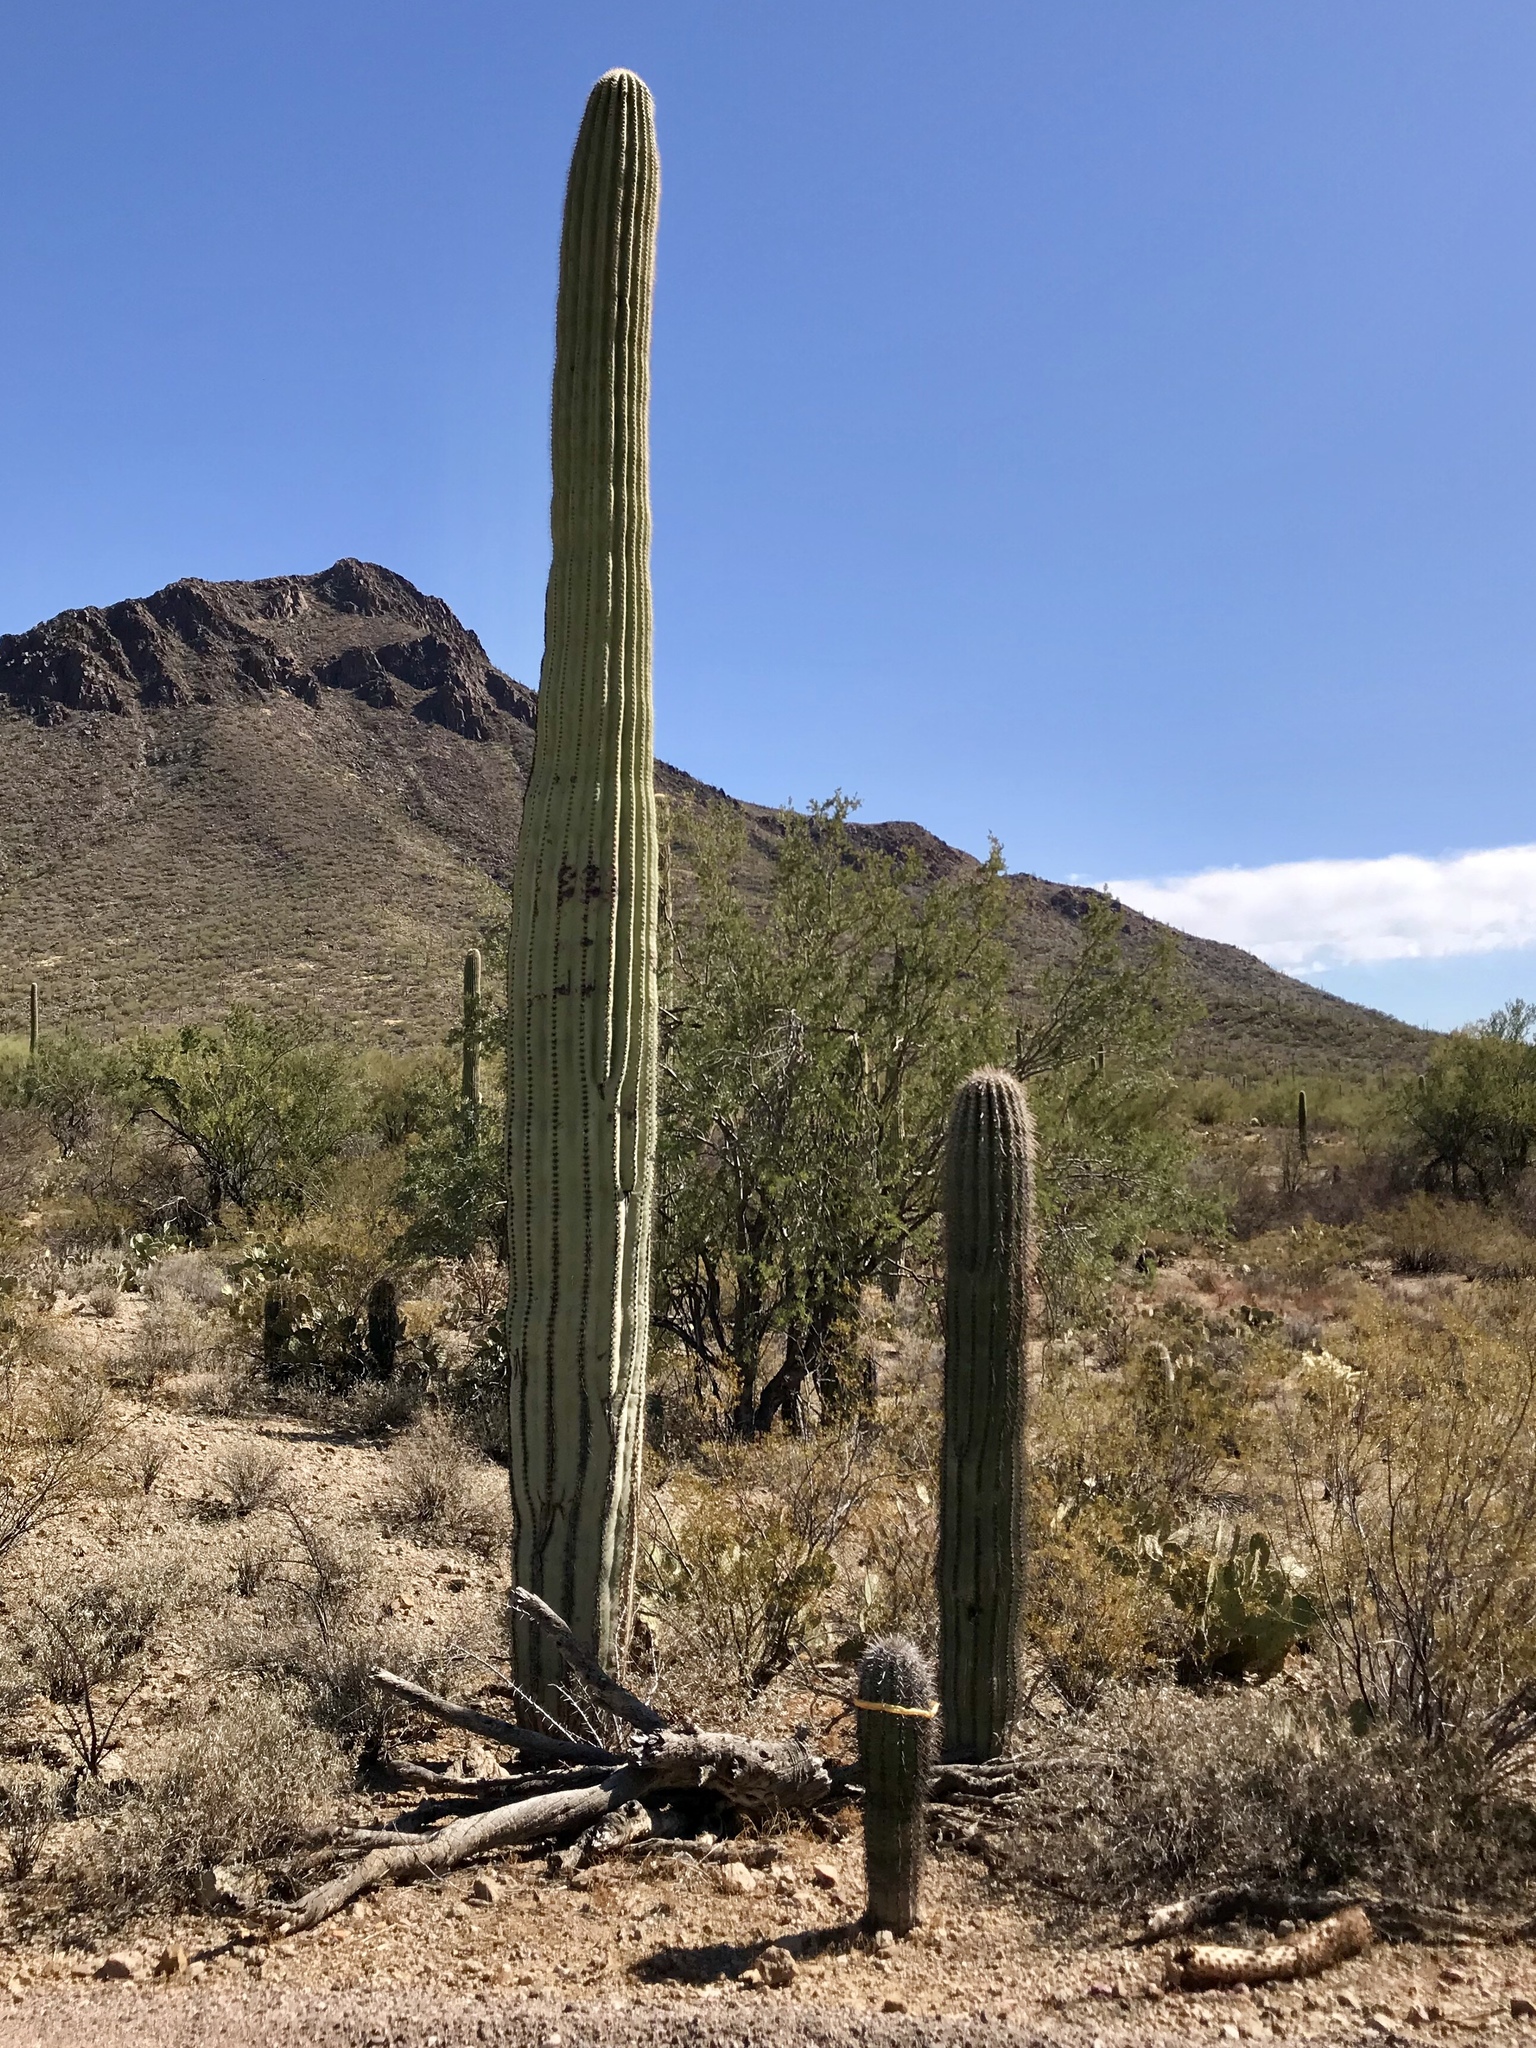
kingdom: Plantae
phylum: Tracheophyta
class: Magnoliopsida
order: Caryophyllales
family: Cactaceae
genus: Carnegiea
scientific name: Carnegiea gigantea
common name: Saguaro
